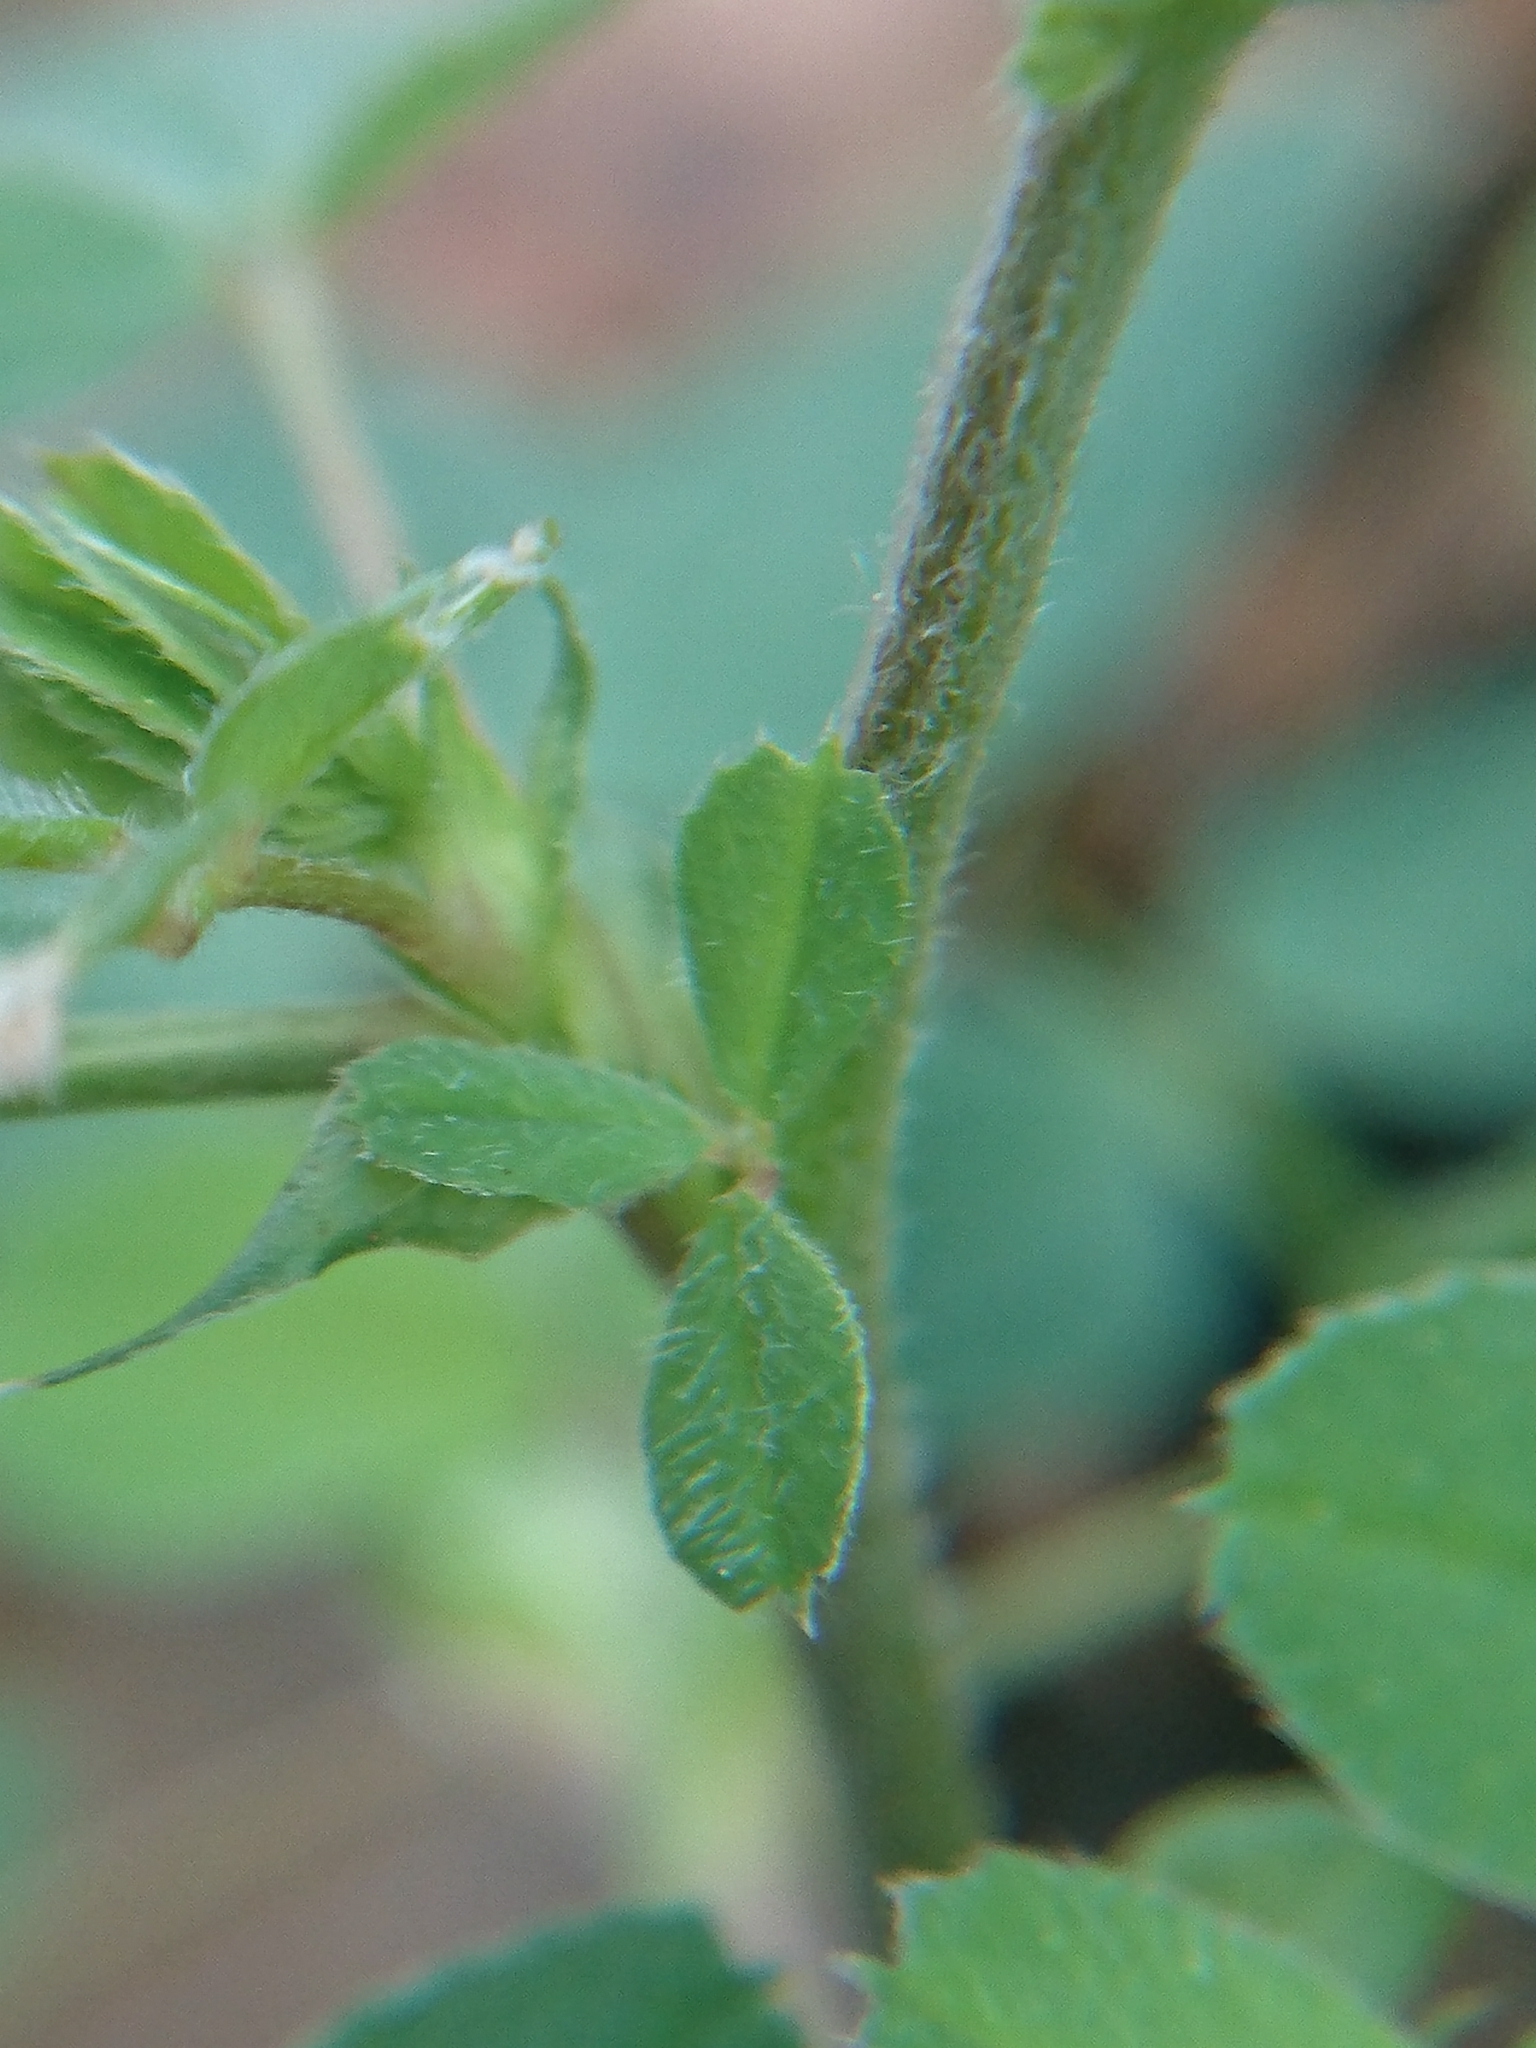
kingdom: Plantae
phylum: Tracheophyta
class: Magnoliopsida
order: Fabales
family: Fabaceae
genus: Medicago
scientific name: Medicago lupulina
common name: Black medick
